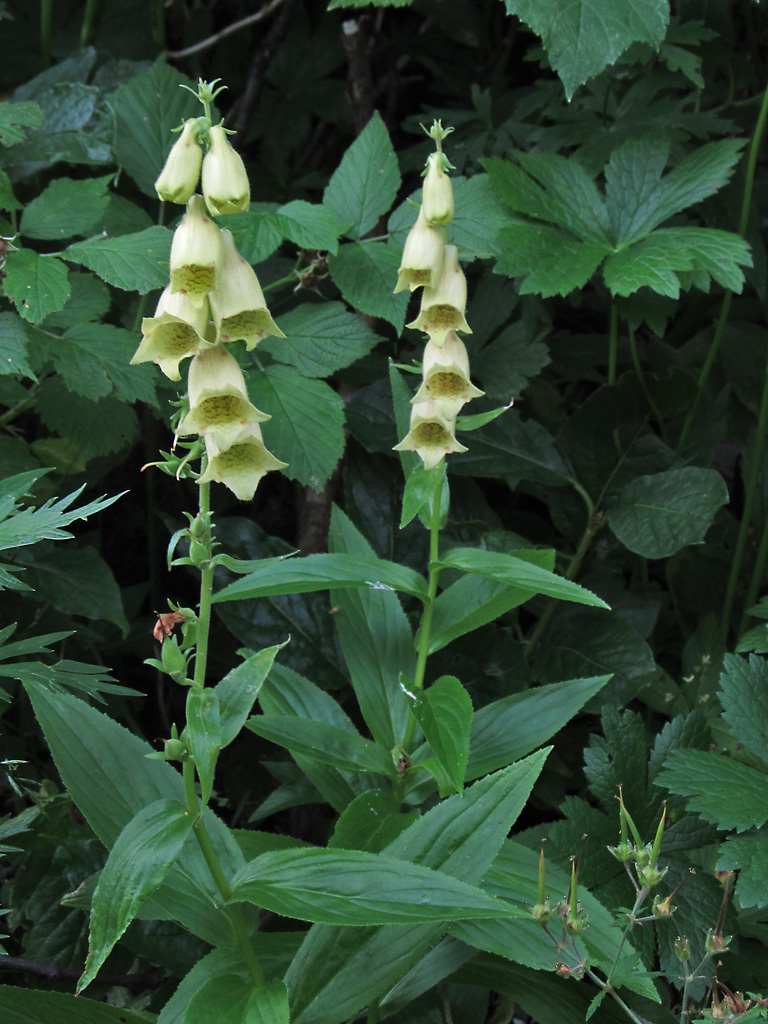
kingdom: Plantae
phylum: Tracheophyta
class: Magnoliopsida
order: Lamiales
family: Plantaginaceae
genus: Digitalis
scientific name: Digitalis grandiflora
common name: Yellow foxglove
